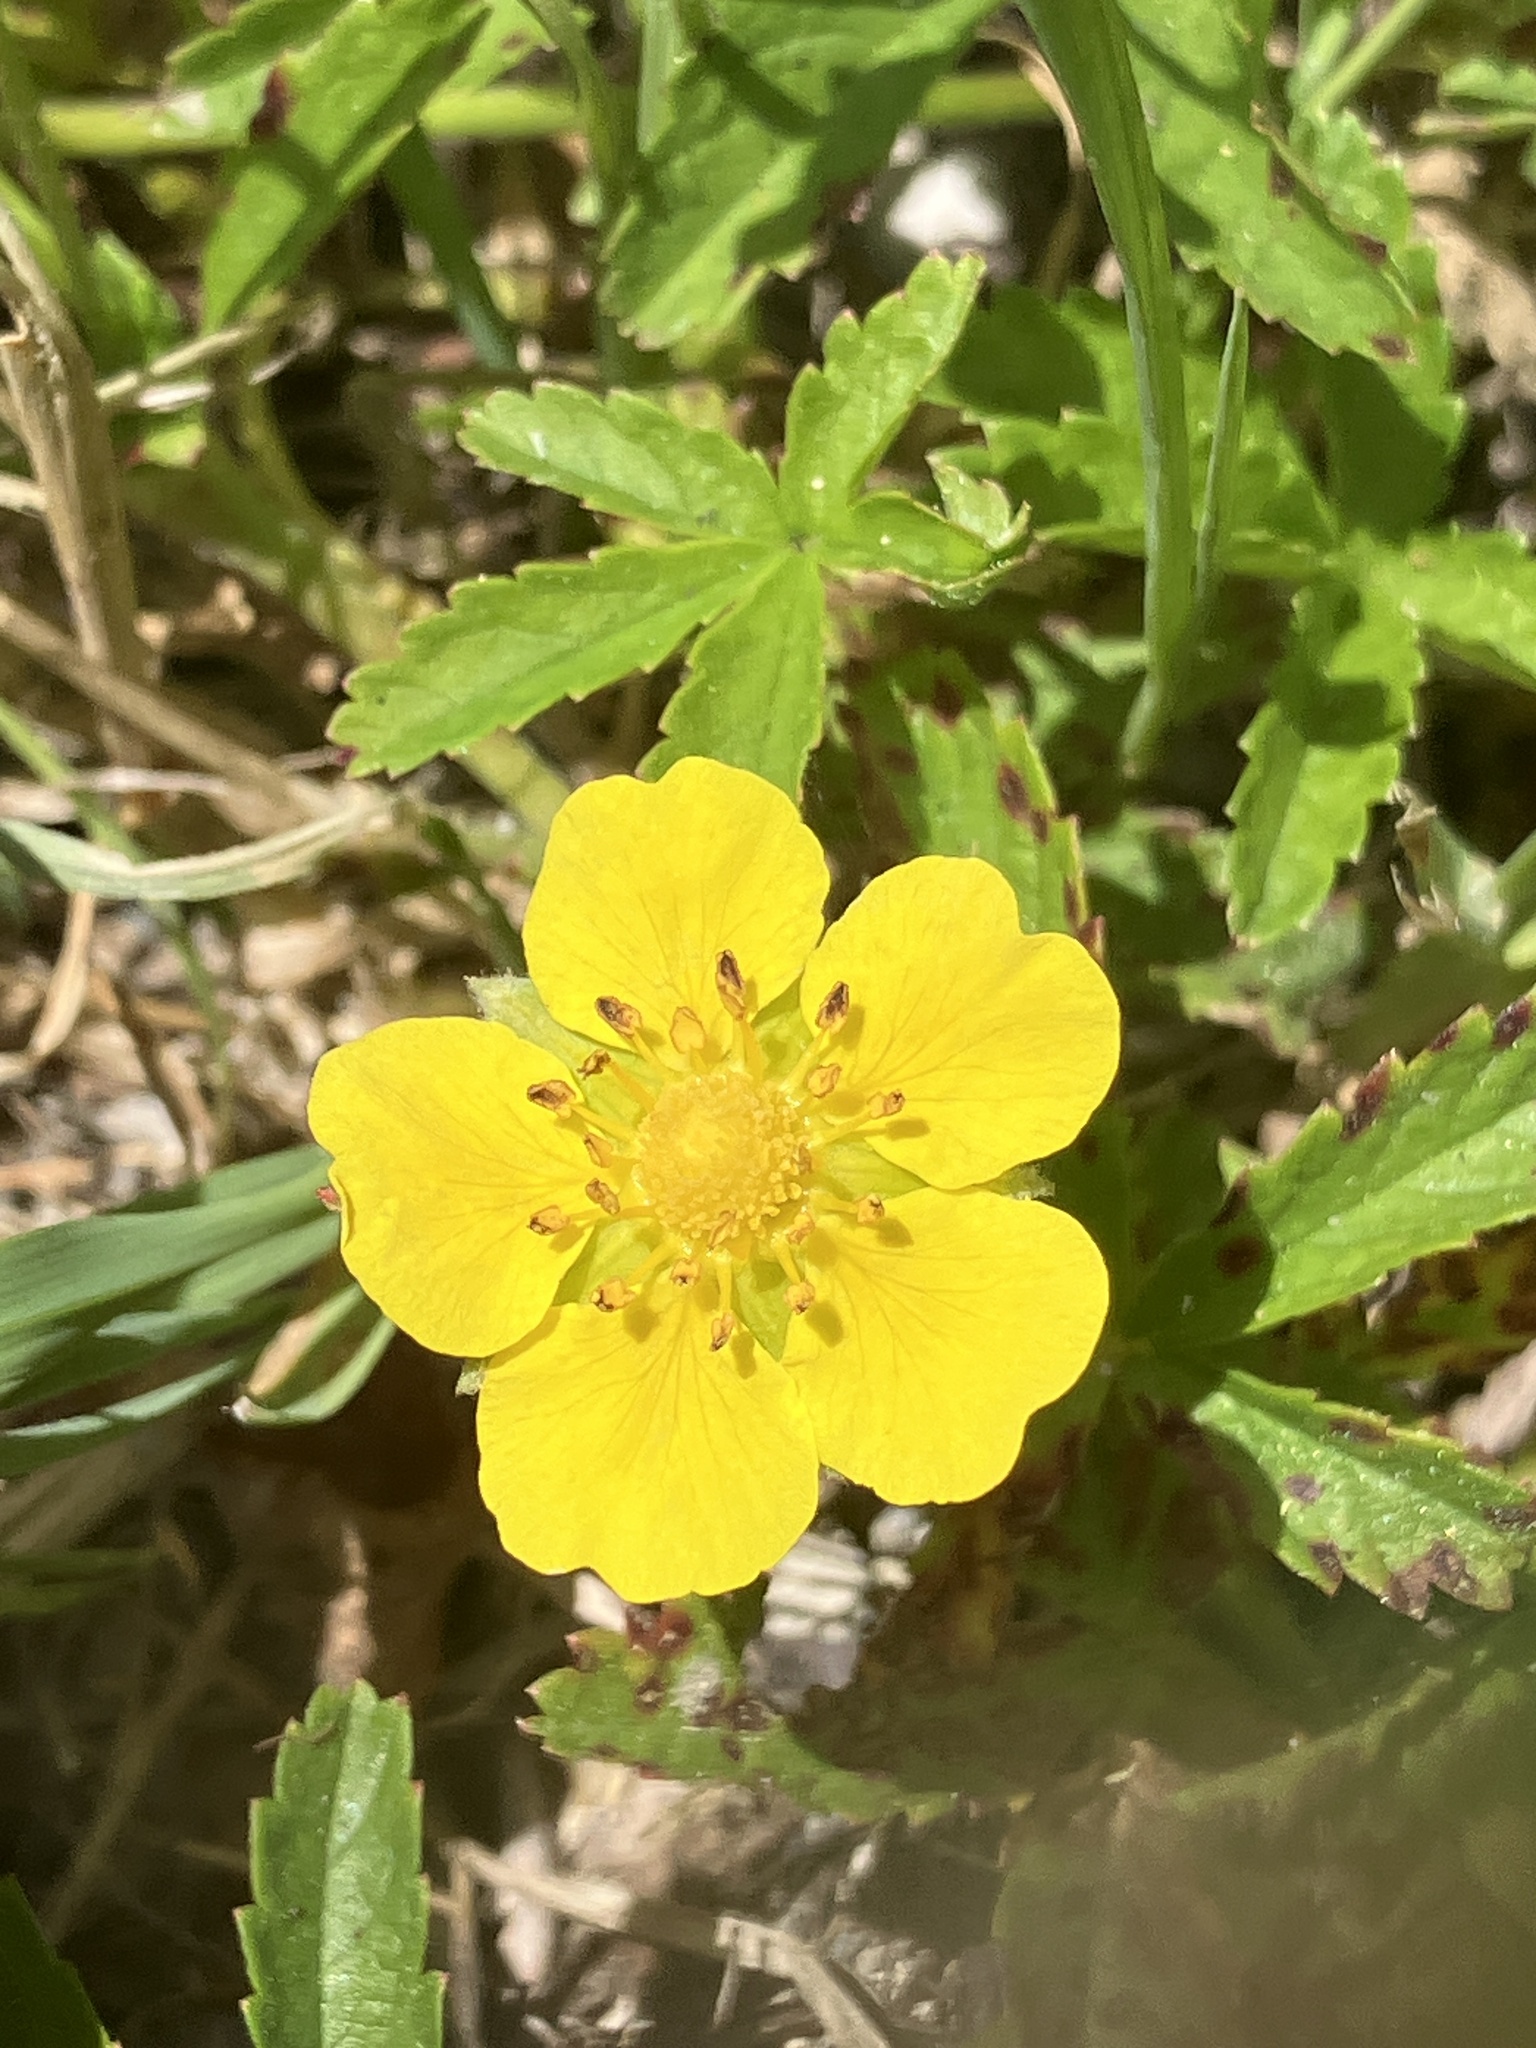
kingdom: Plantae
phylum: Tracheophyta
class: Magnoliopsida
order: Rosales
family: Rosaceae
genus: Potentilla
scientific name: Potentilla reptans
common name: Creeping cinquefoil
